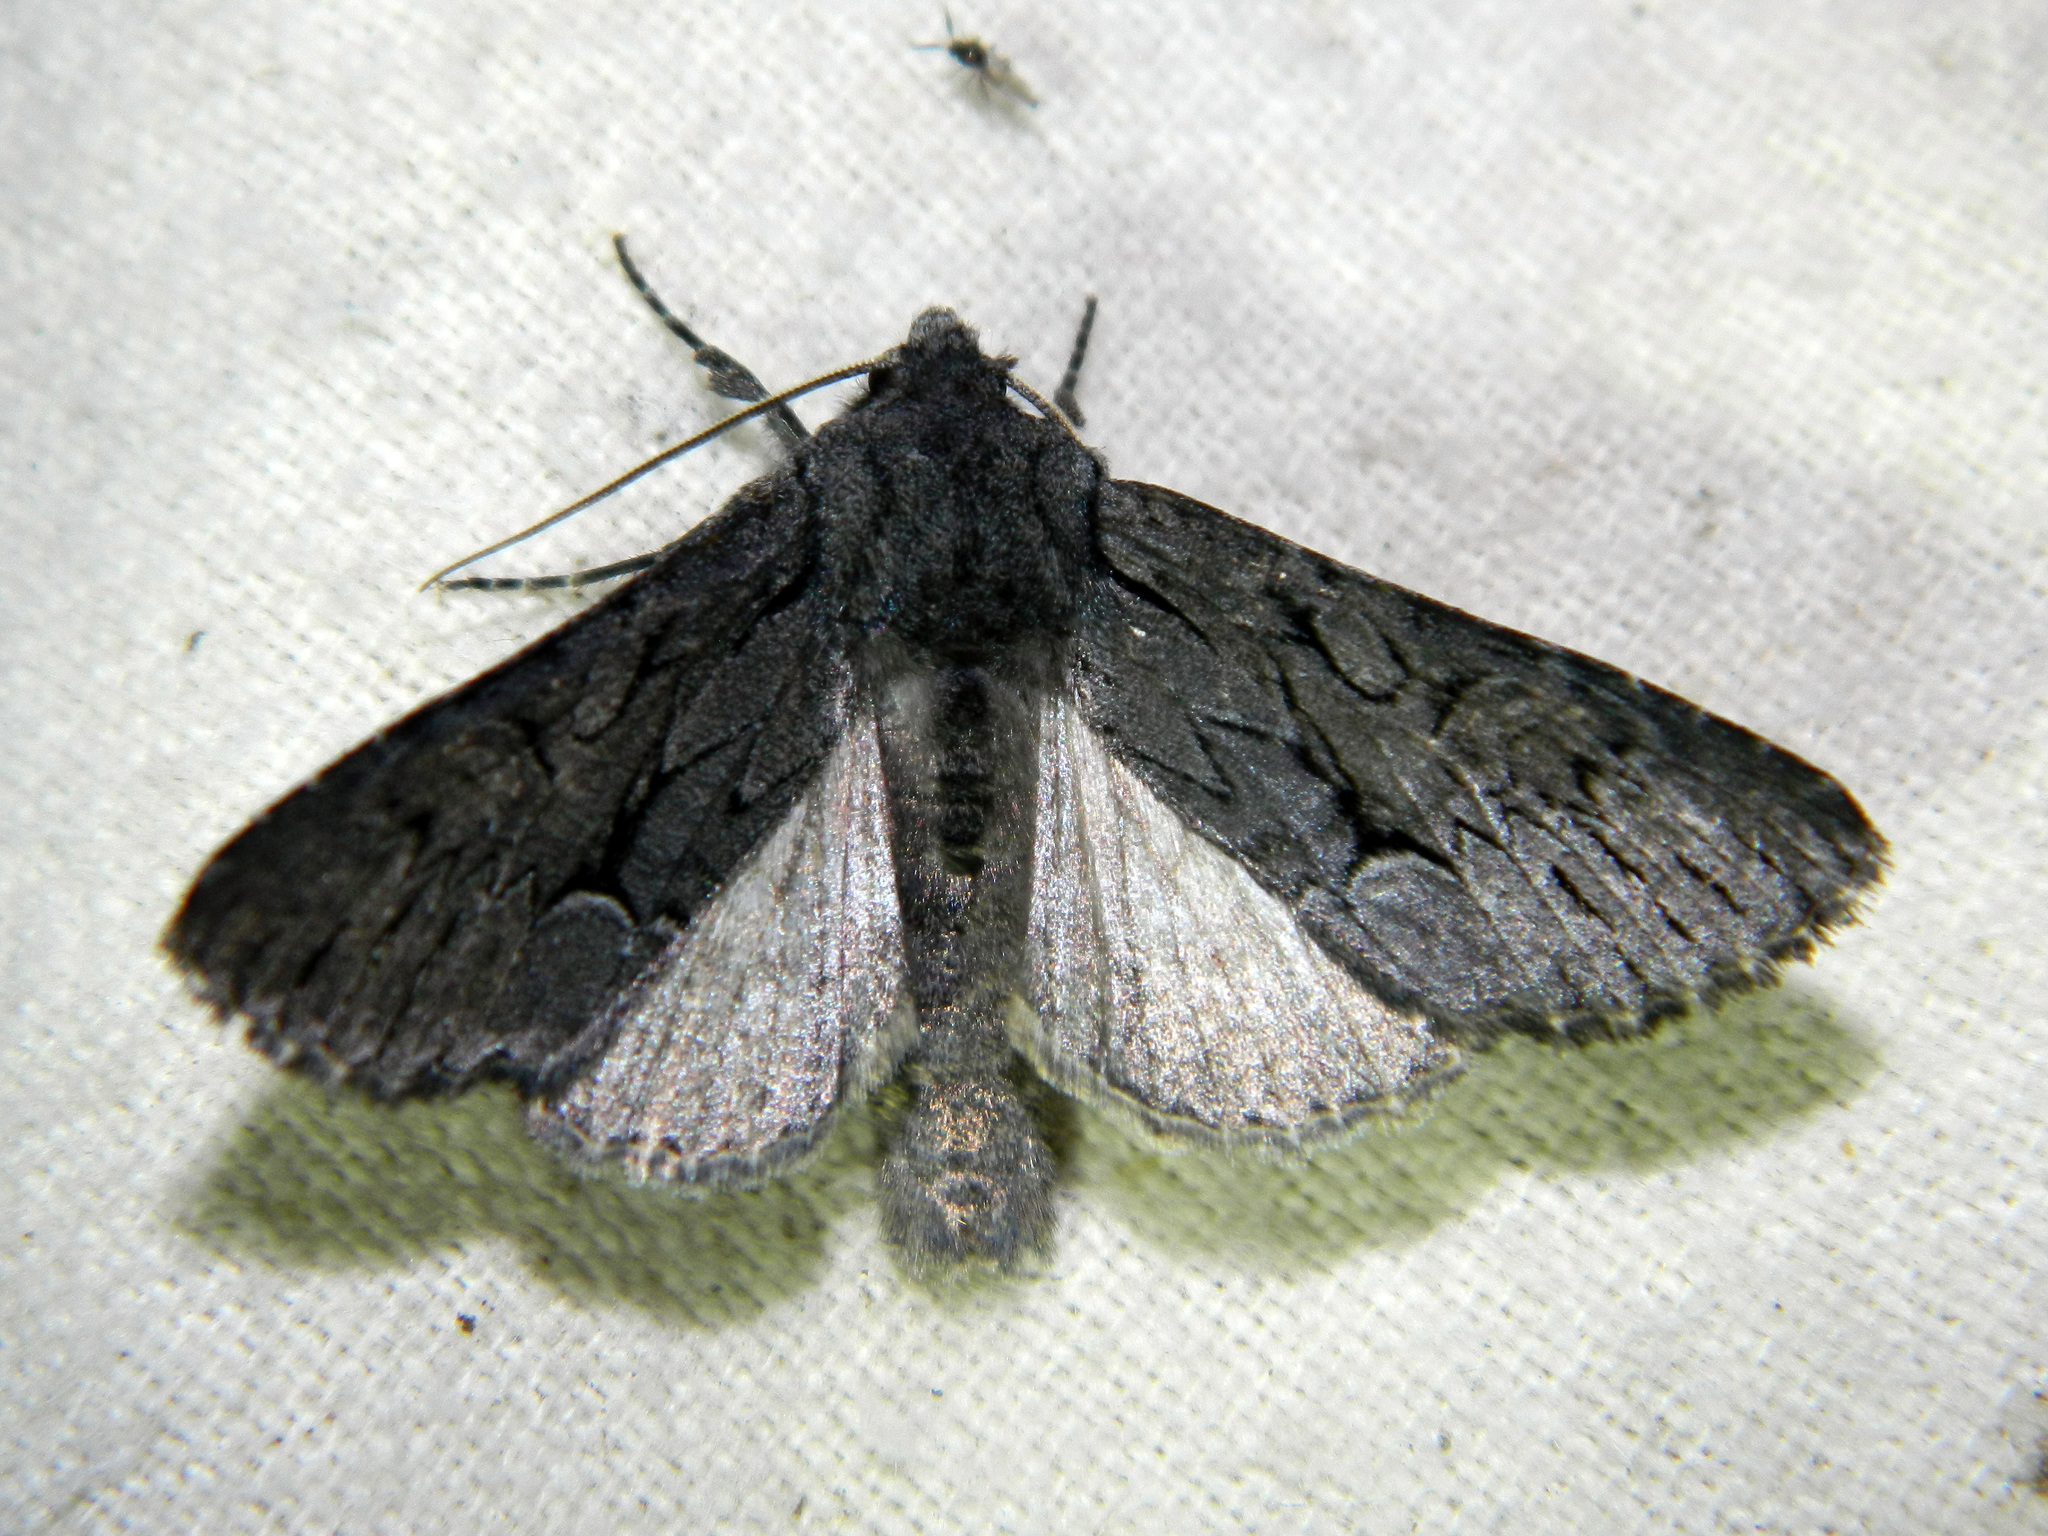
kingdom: Animalia
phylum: Arthropoda
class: Insecta
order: Lepidoptera
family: Noctuidae
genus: Fishia
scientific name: Fishia yosemitae
